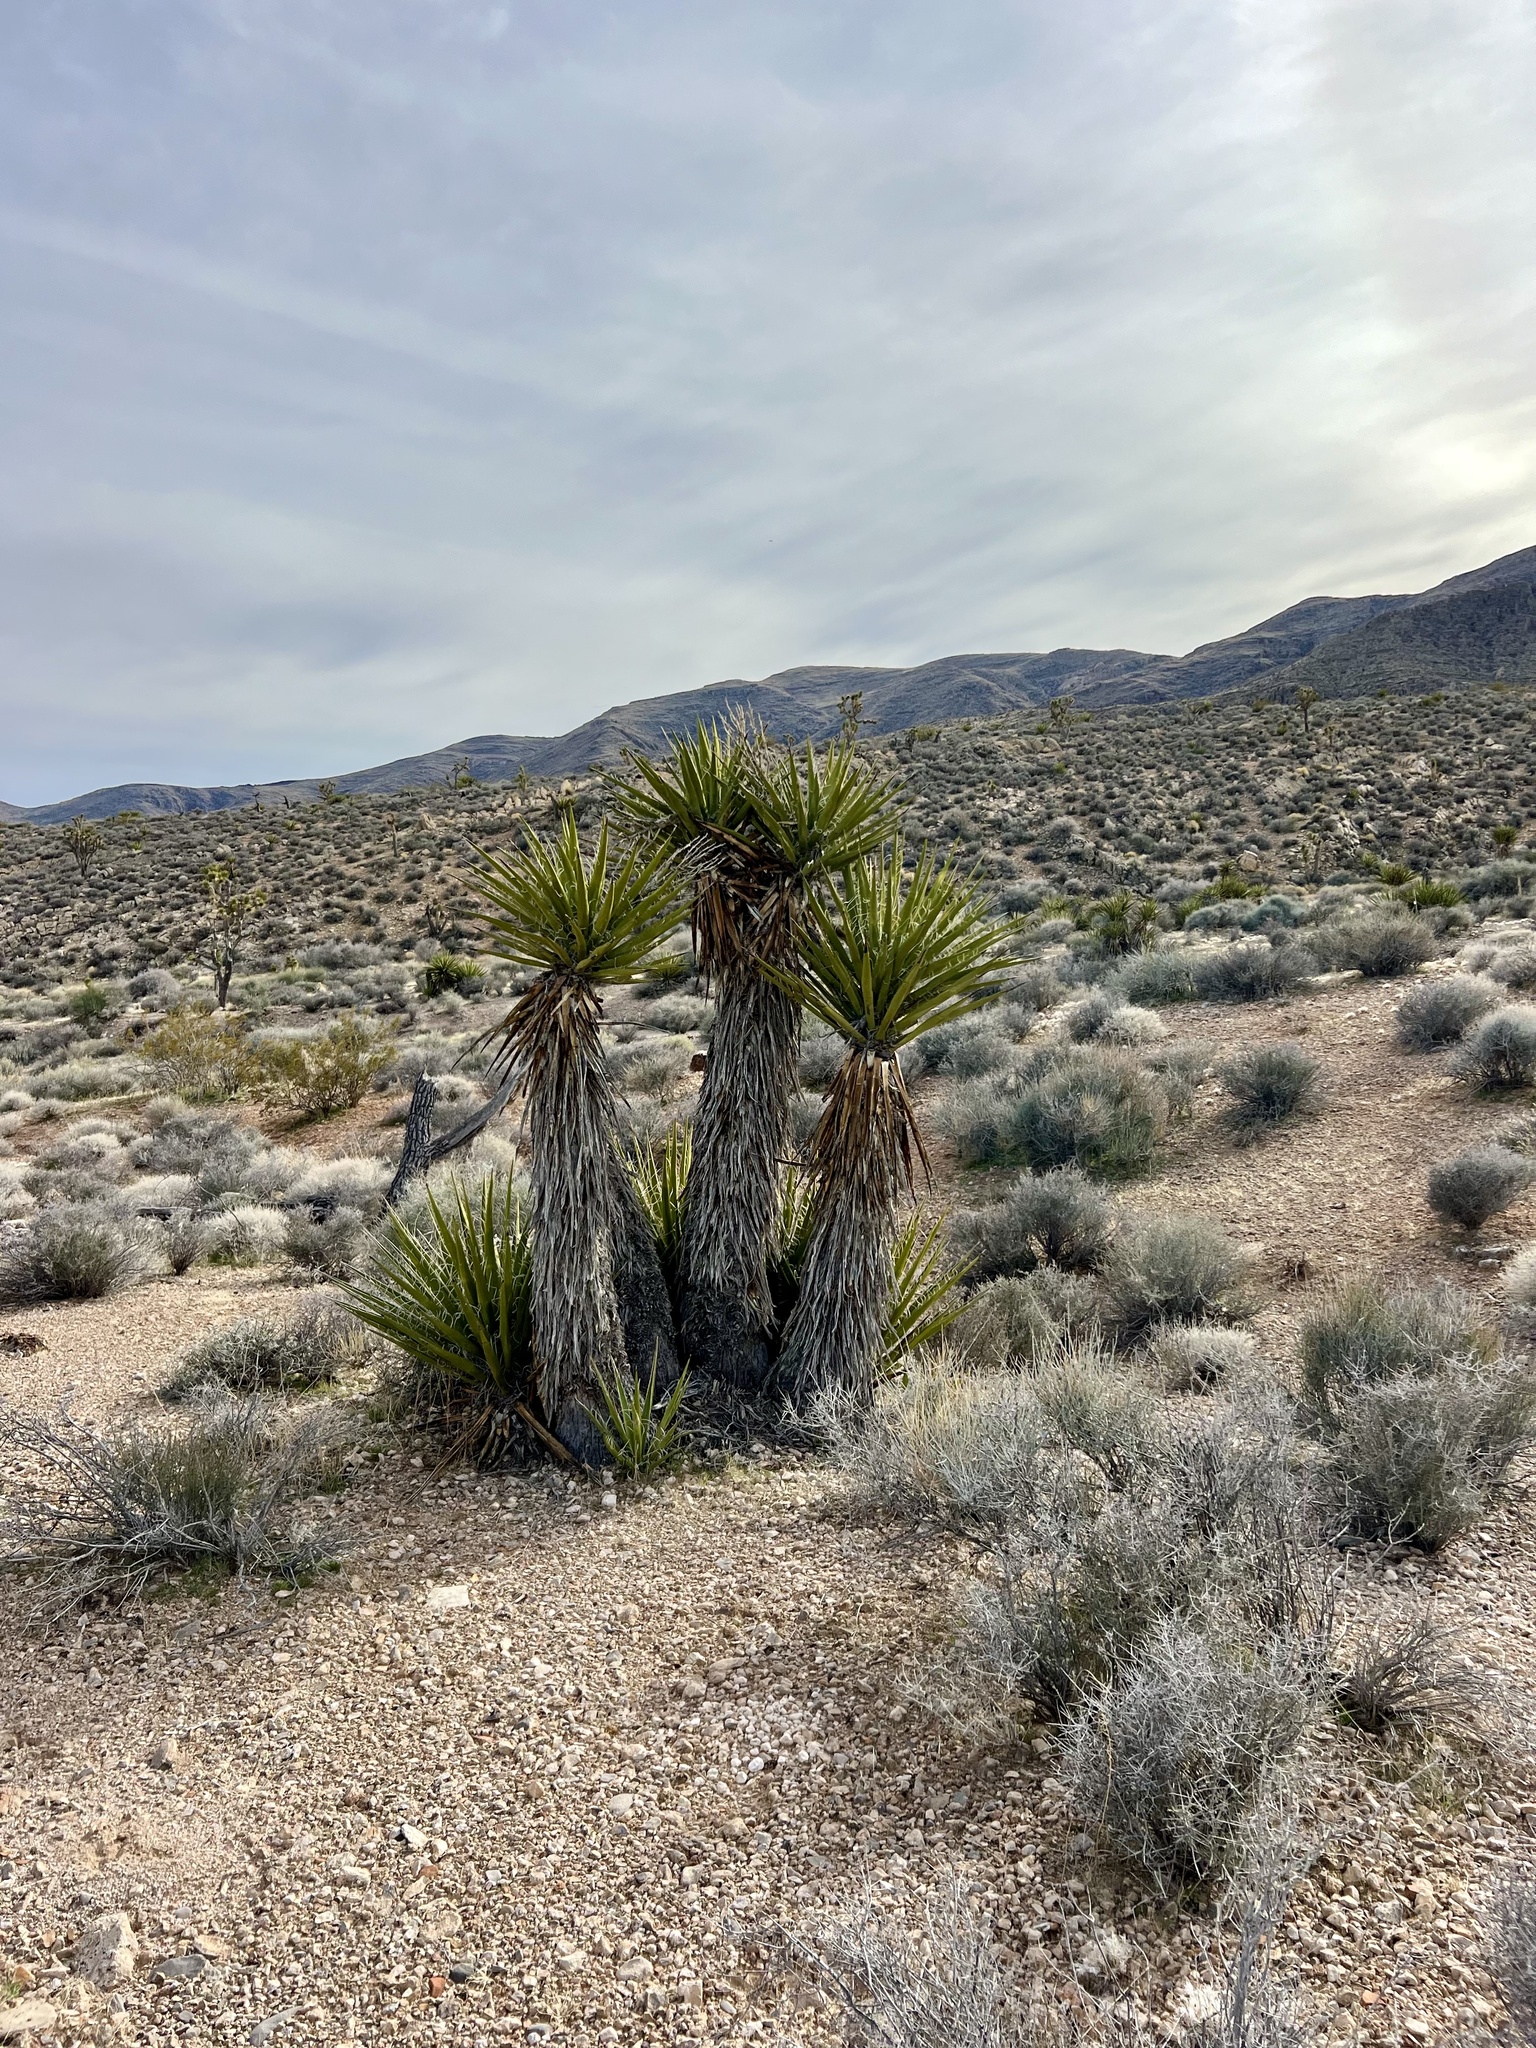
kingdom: Plantae
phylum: Tracheophyta
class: Liliopsida
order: Asparagales
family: Asparagaceae
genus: Yucca
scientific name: Yucca schidigera
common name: Mojave yucca
